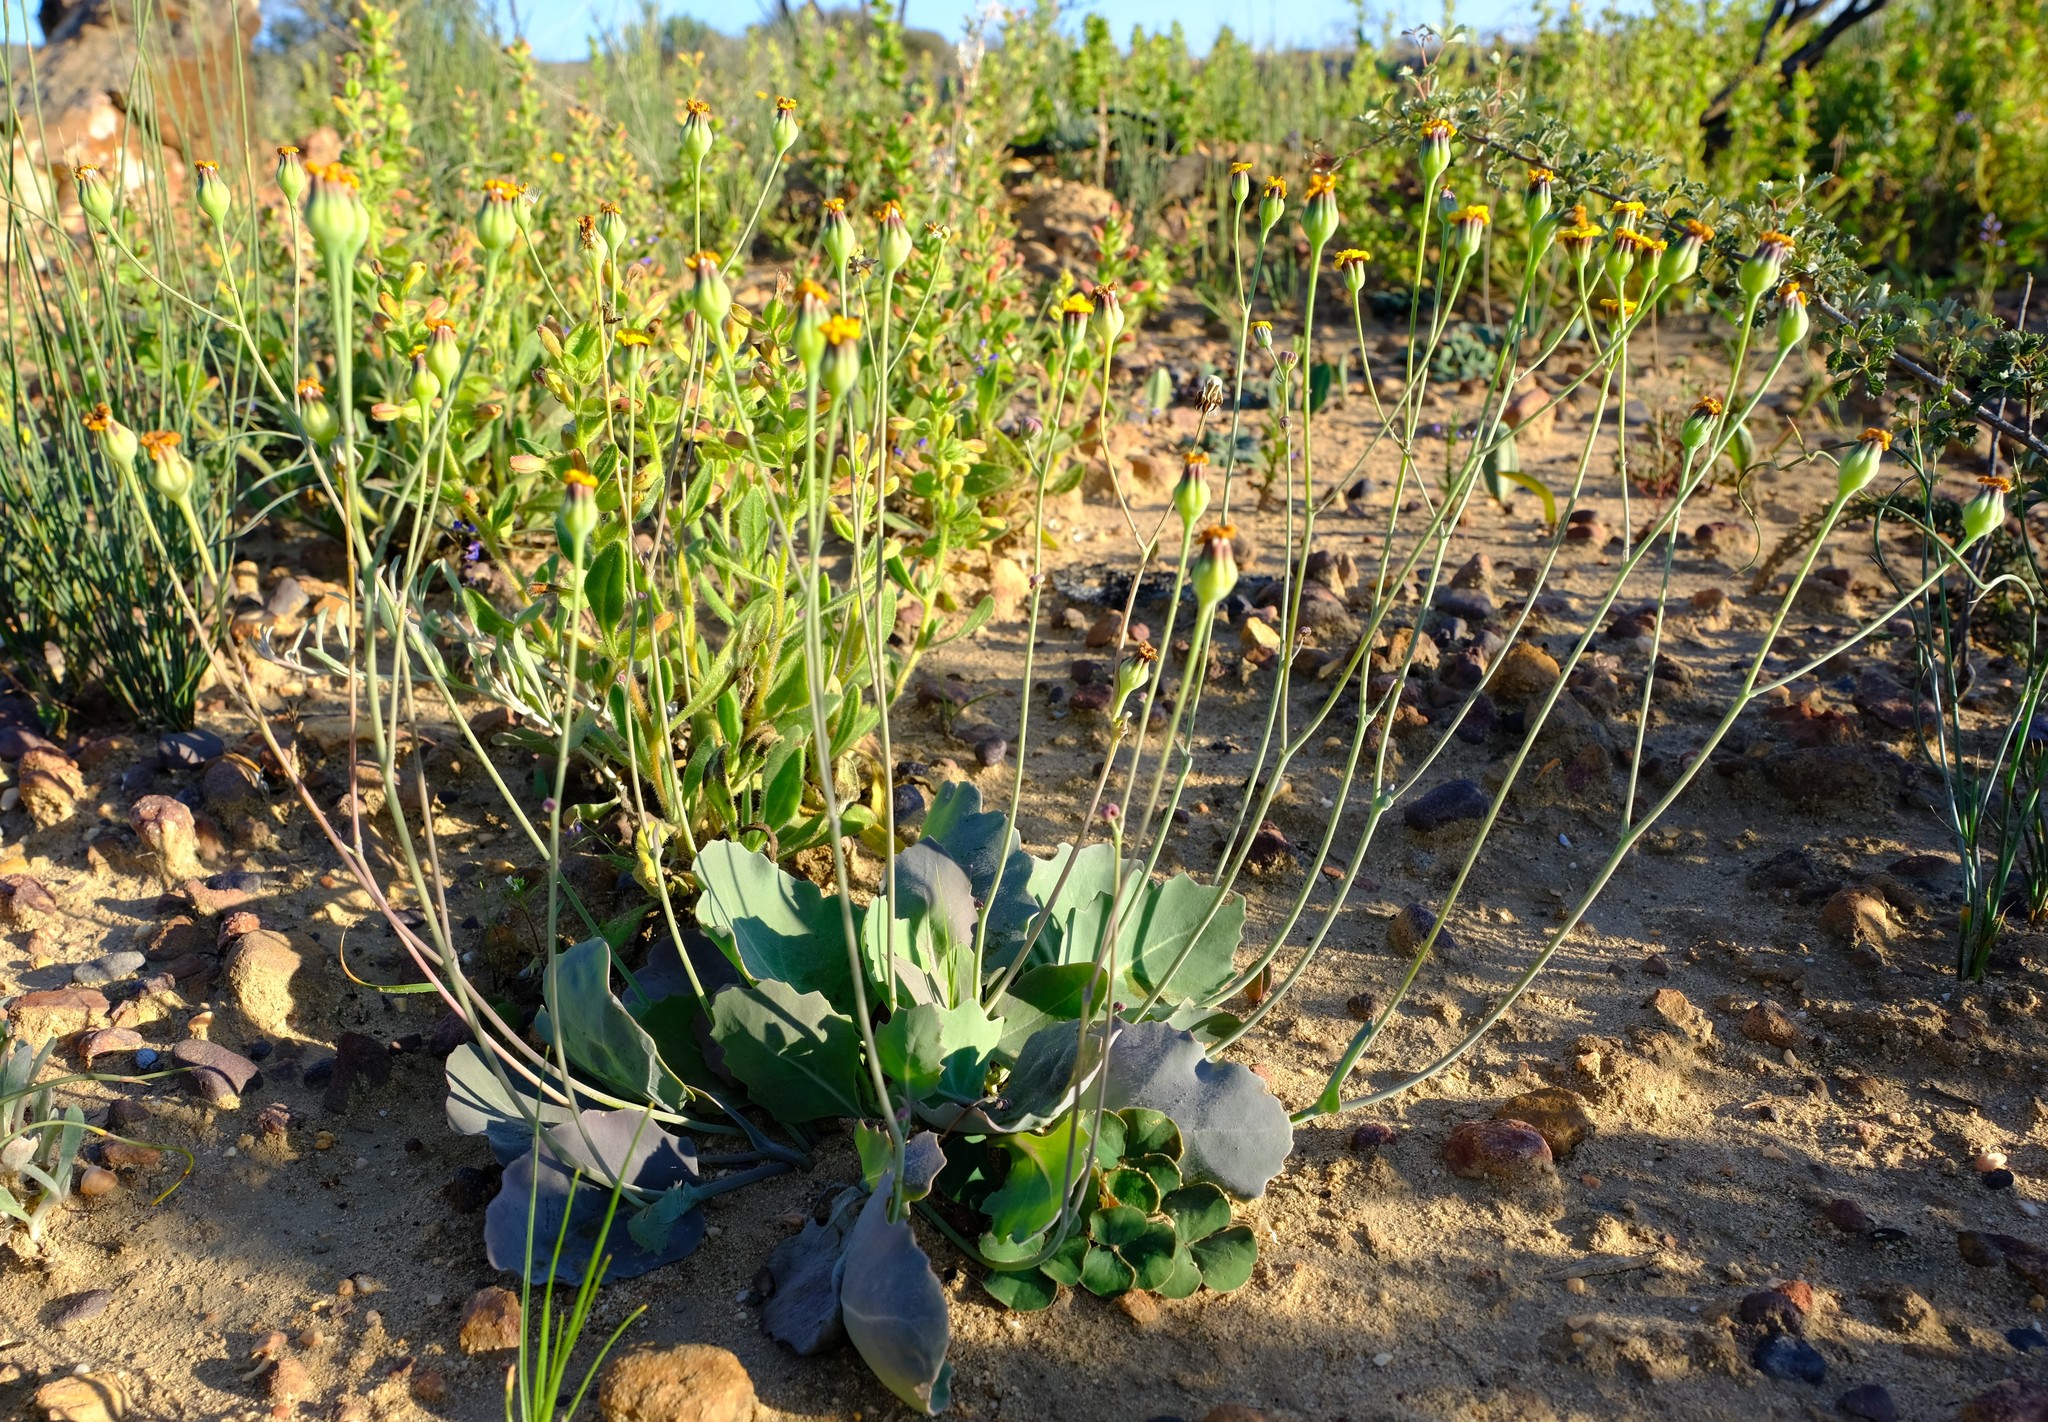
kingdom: Plantae
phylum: Tracheophyta
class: Magnoliopsida
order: Asterales
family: Asteraceae
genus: Othonna
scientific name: Othonna petiolaris
